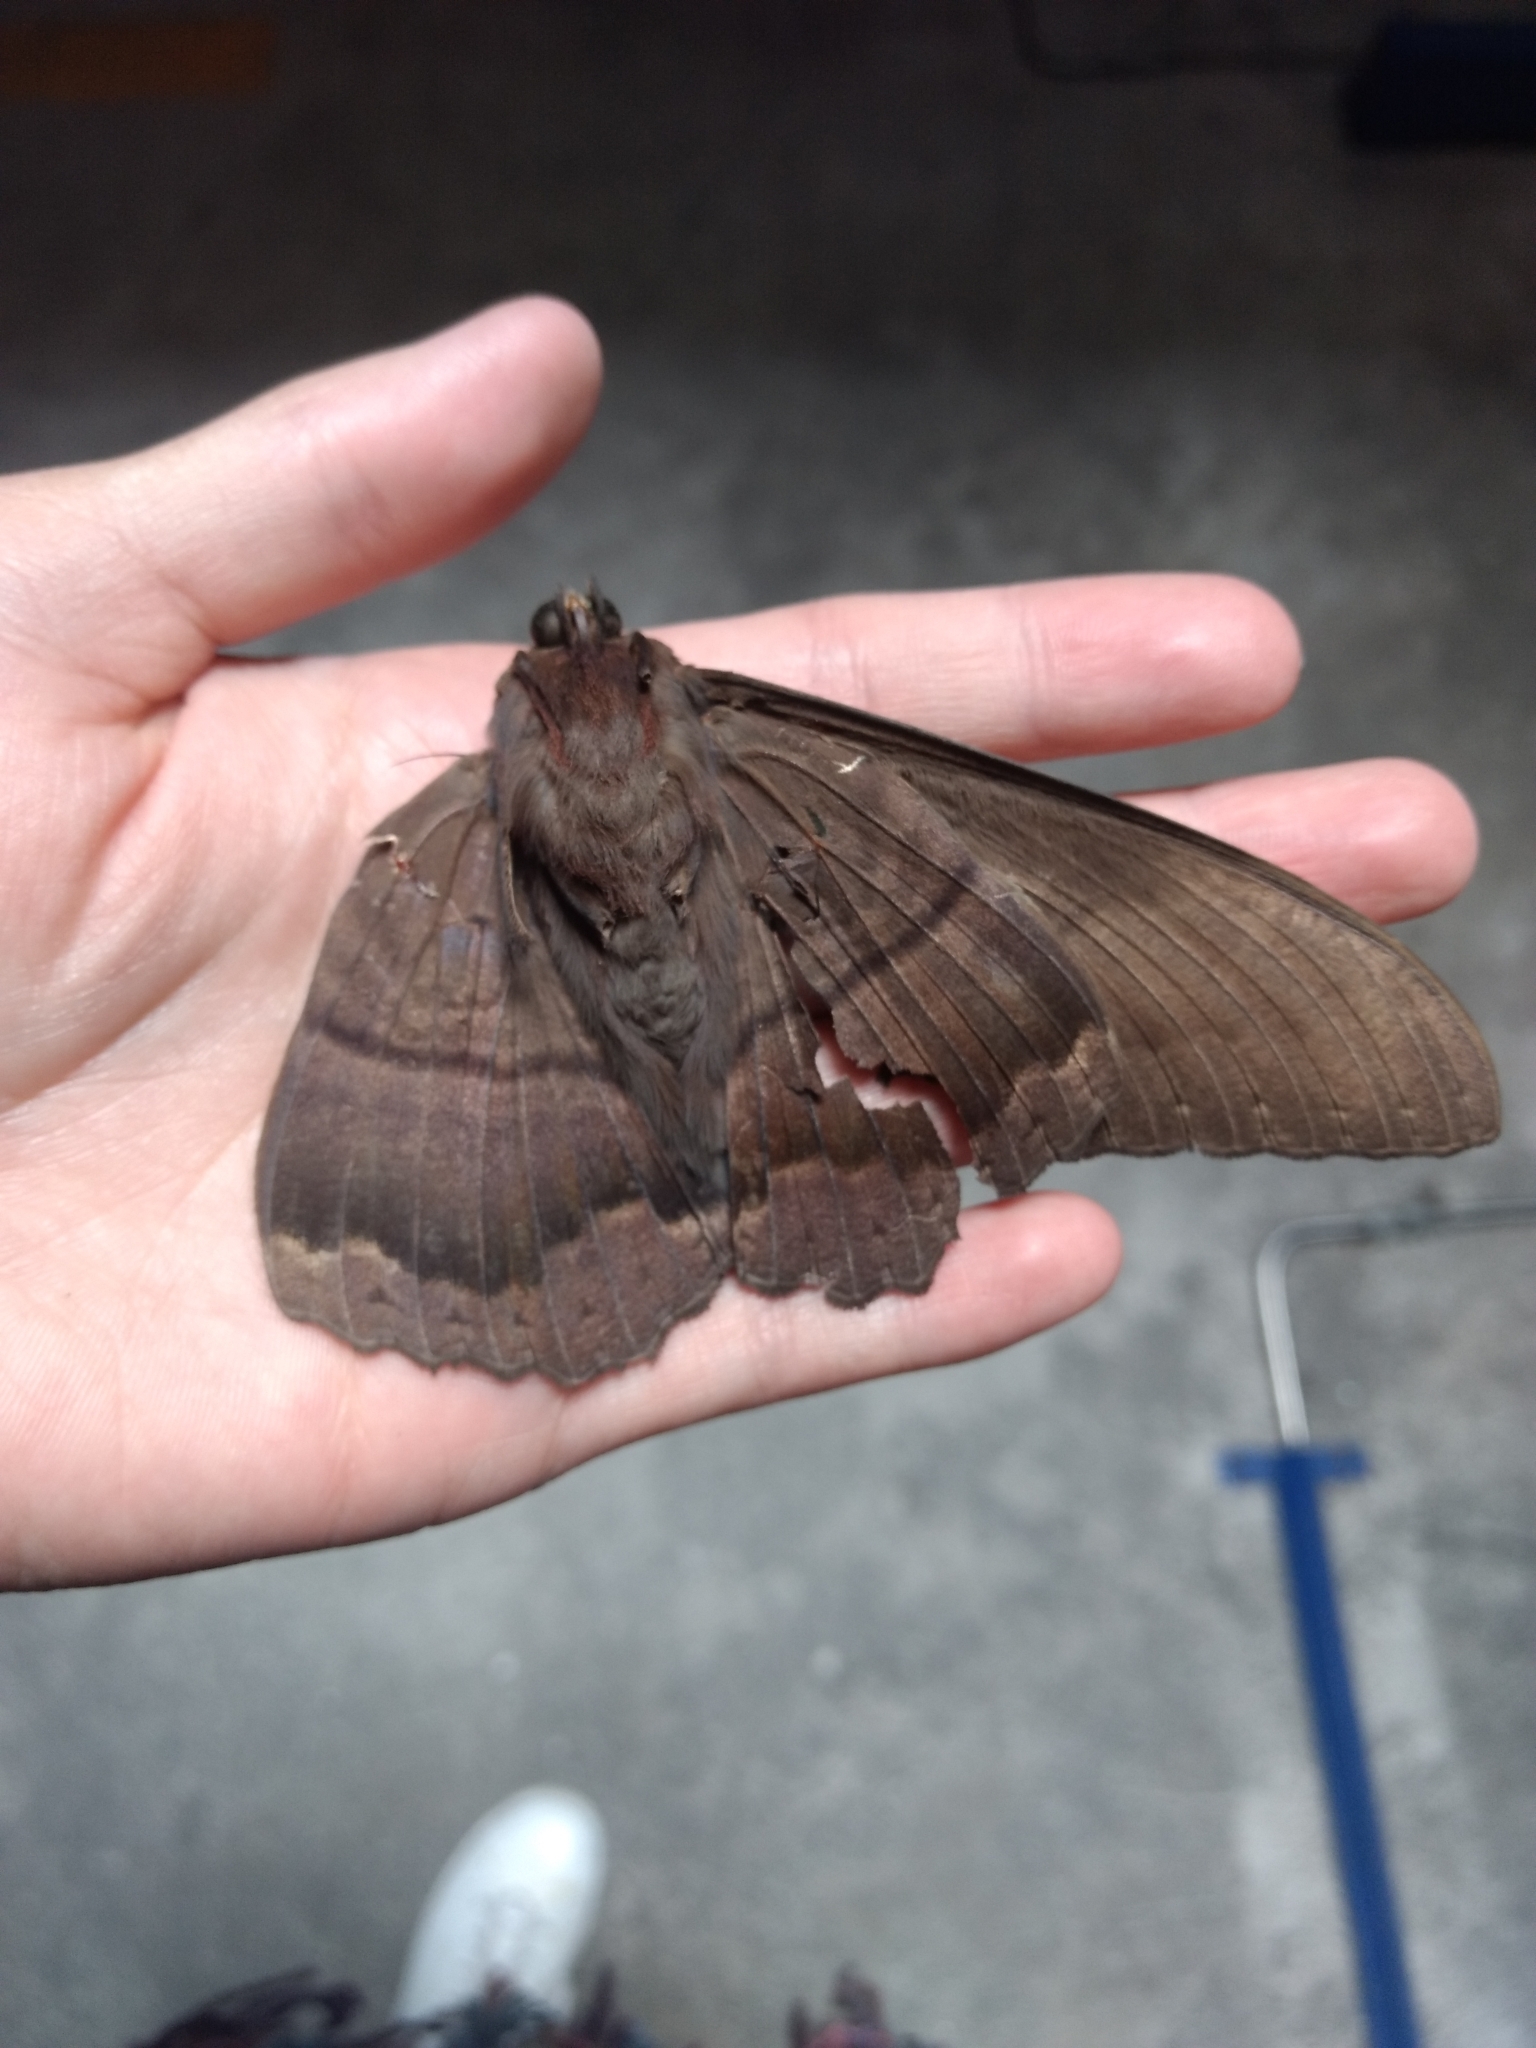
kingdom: Animalia
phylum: Arthropoda
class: Insecta
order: Lepidoptera
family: Erebidae
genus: Ascalapha
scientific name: Ascalapha odorata
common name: Black witch
